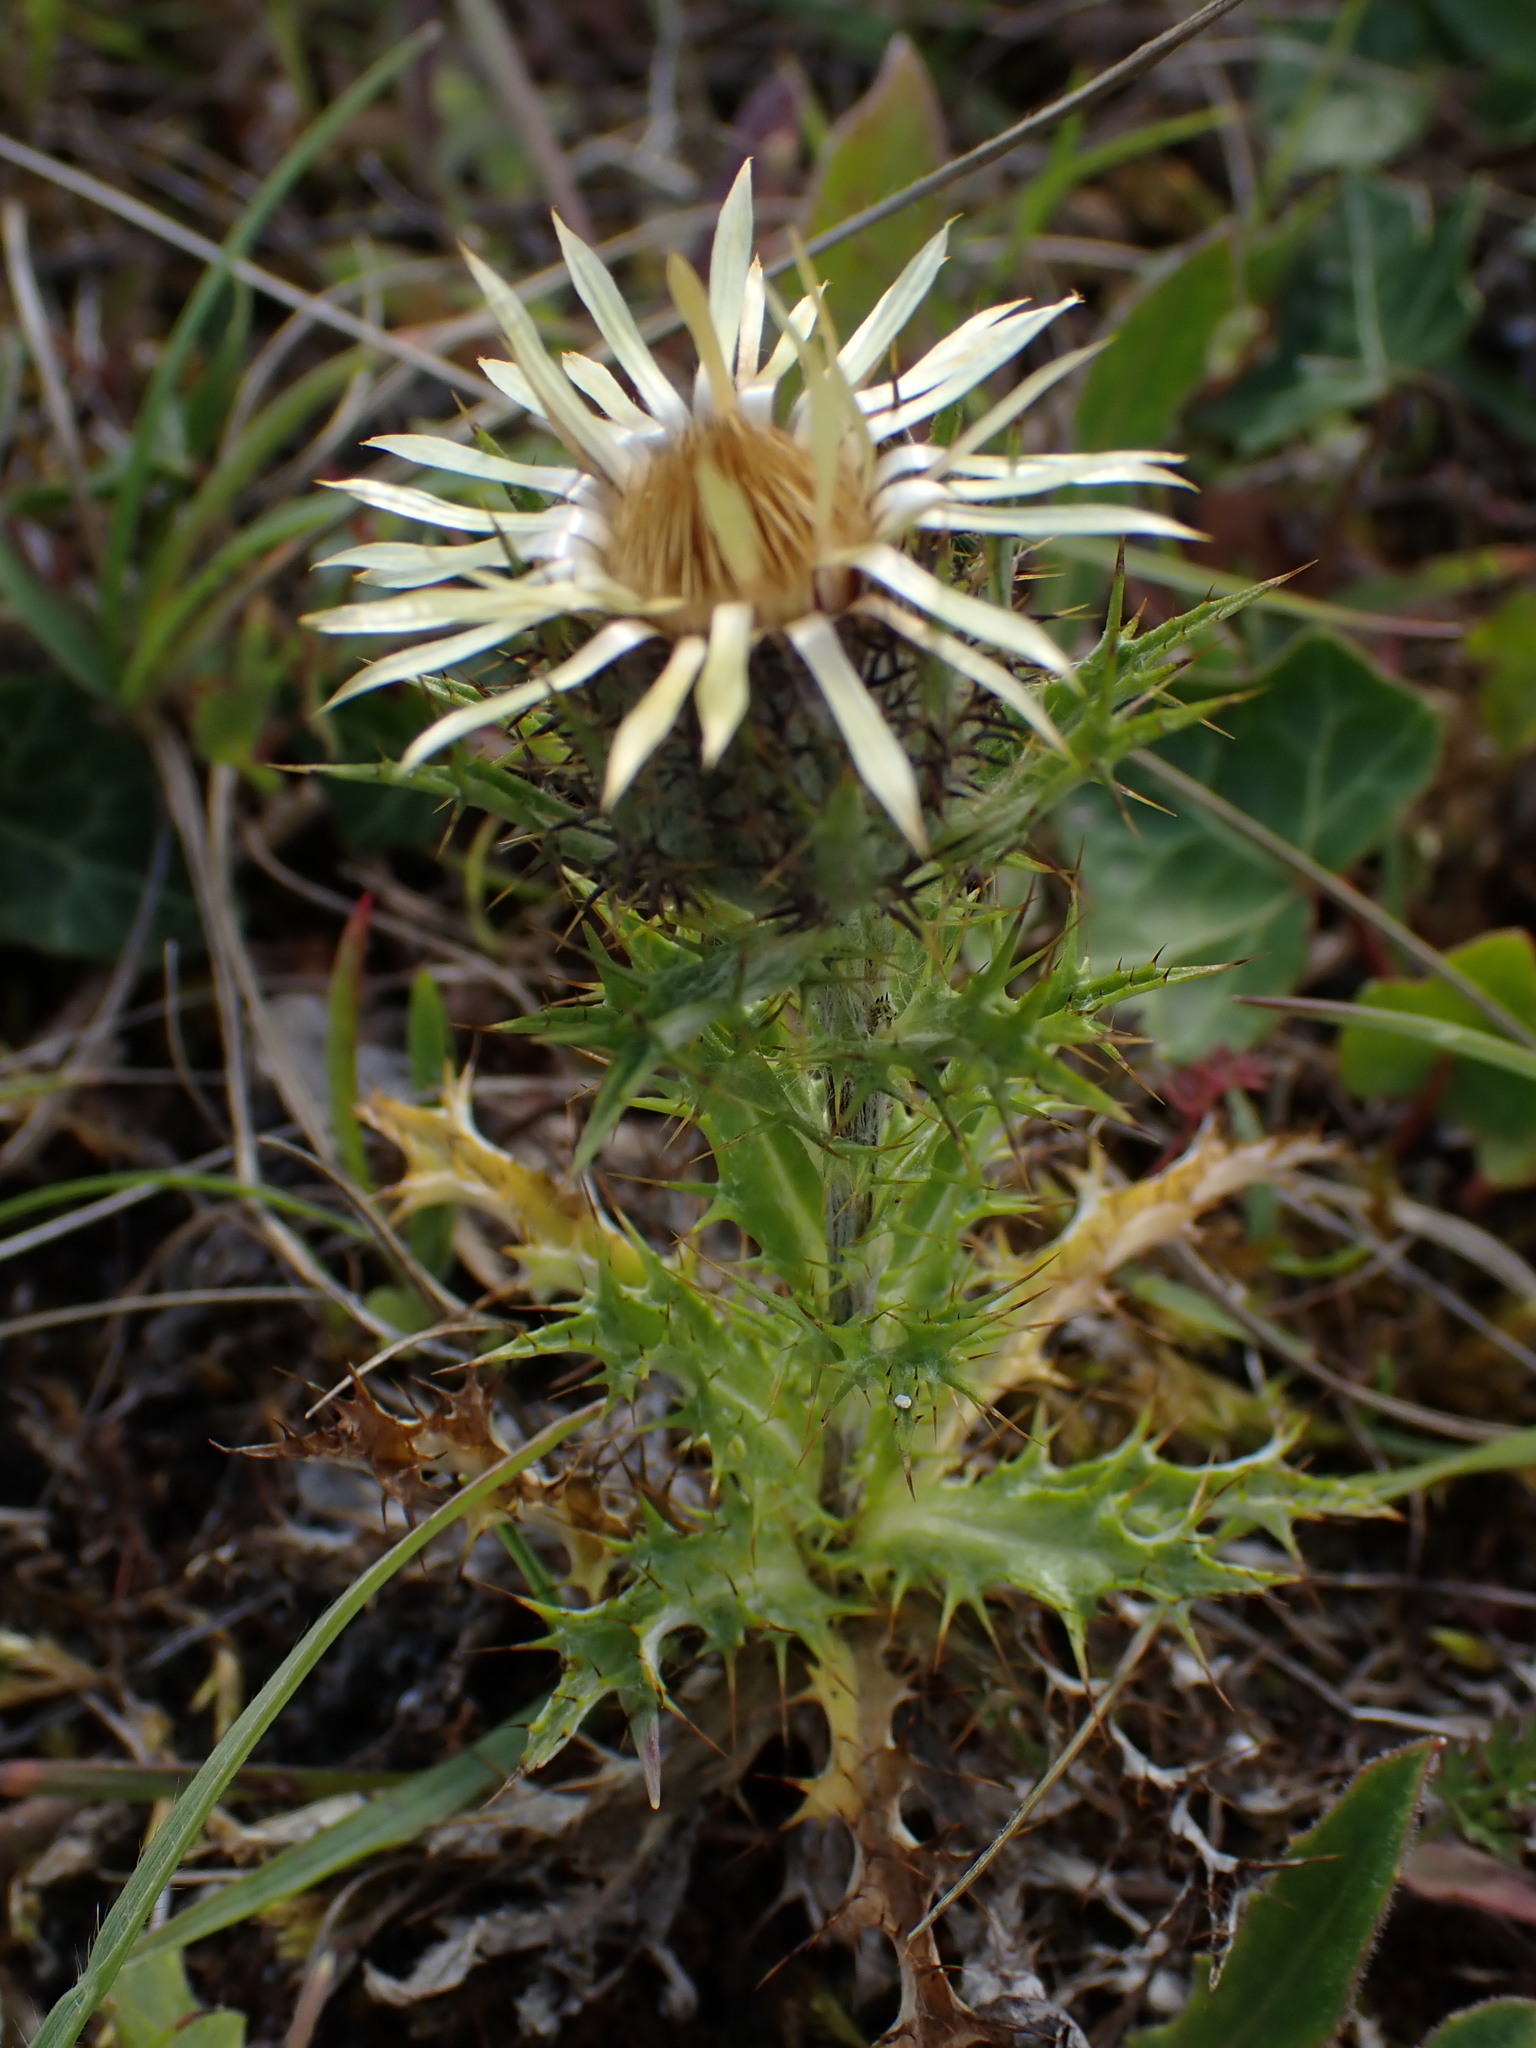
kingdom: Plantae
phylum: Tracheophyta
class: Magnoliopsida
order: Asterales
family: Asteraceae
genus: Carlina
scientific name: Carlina vulgaris
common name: Carline thistle
